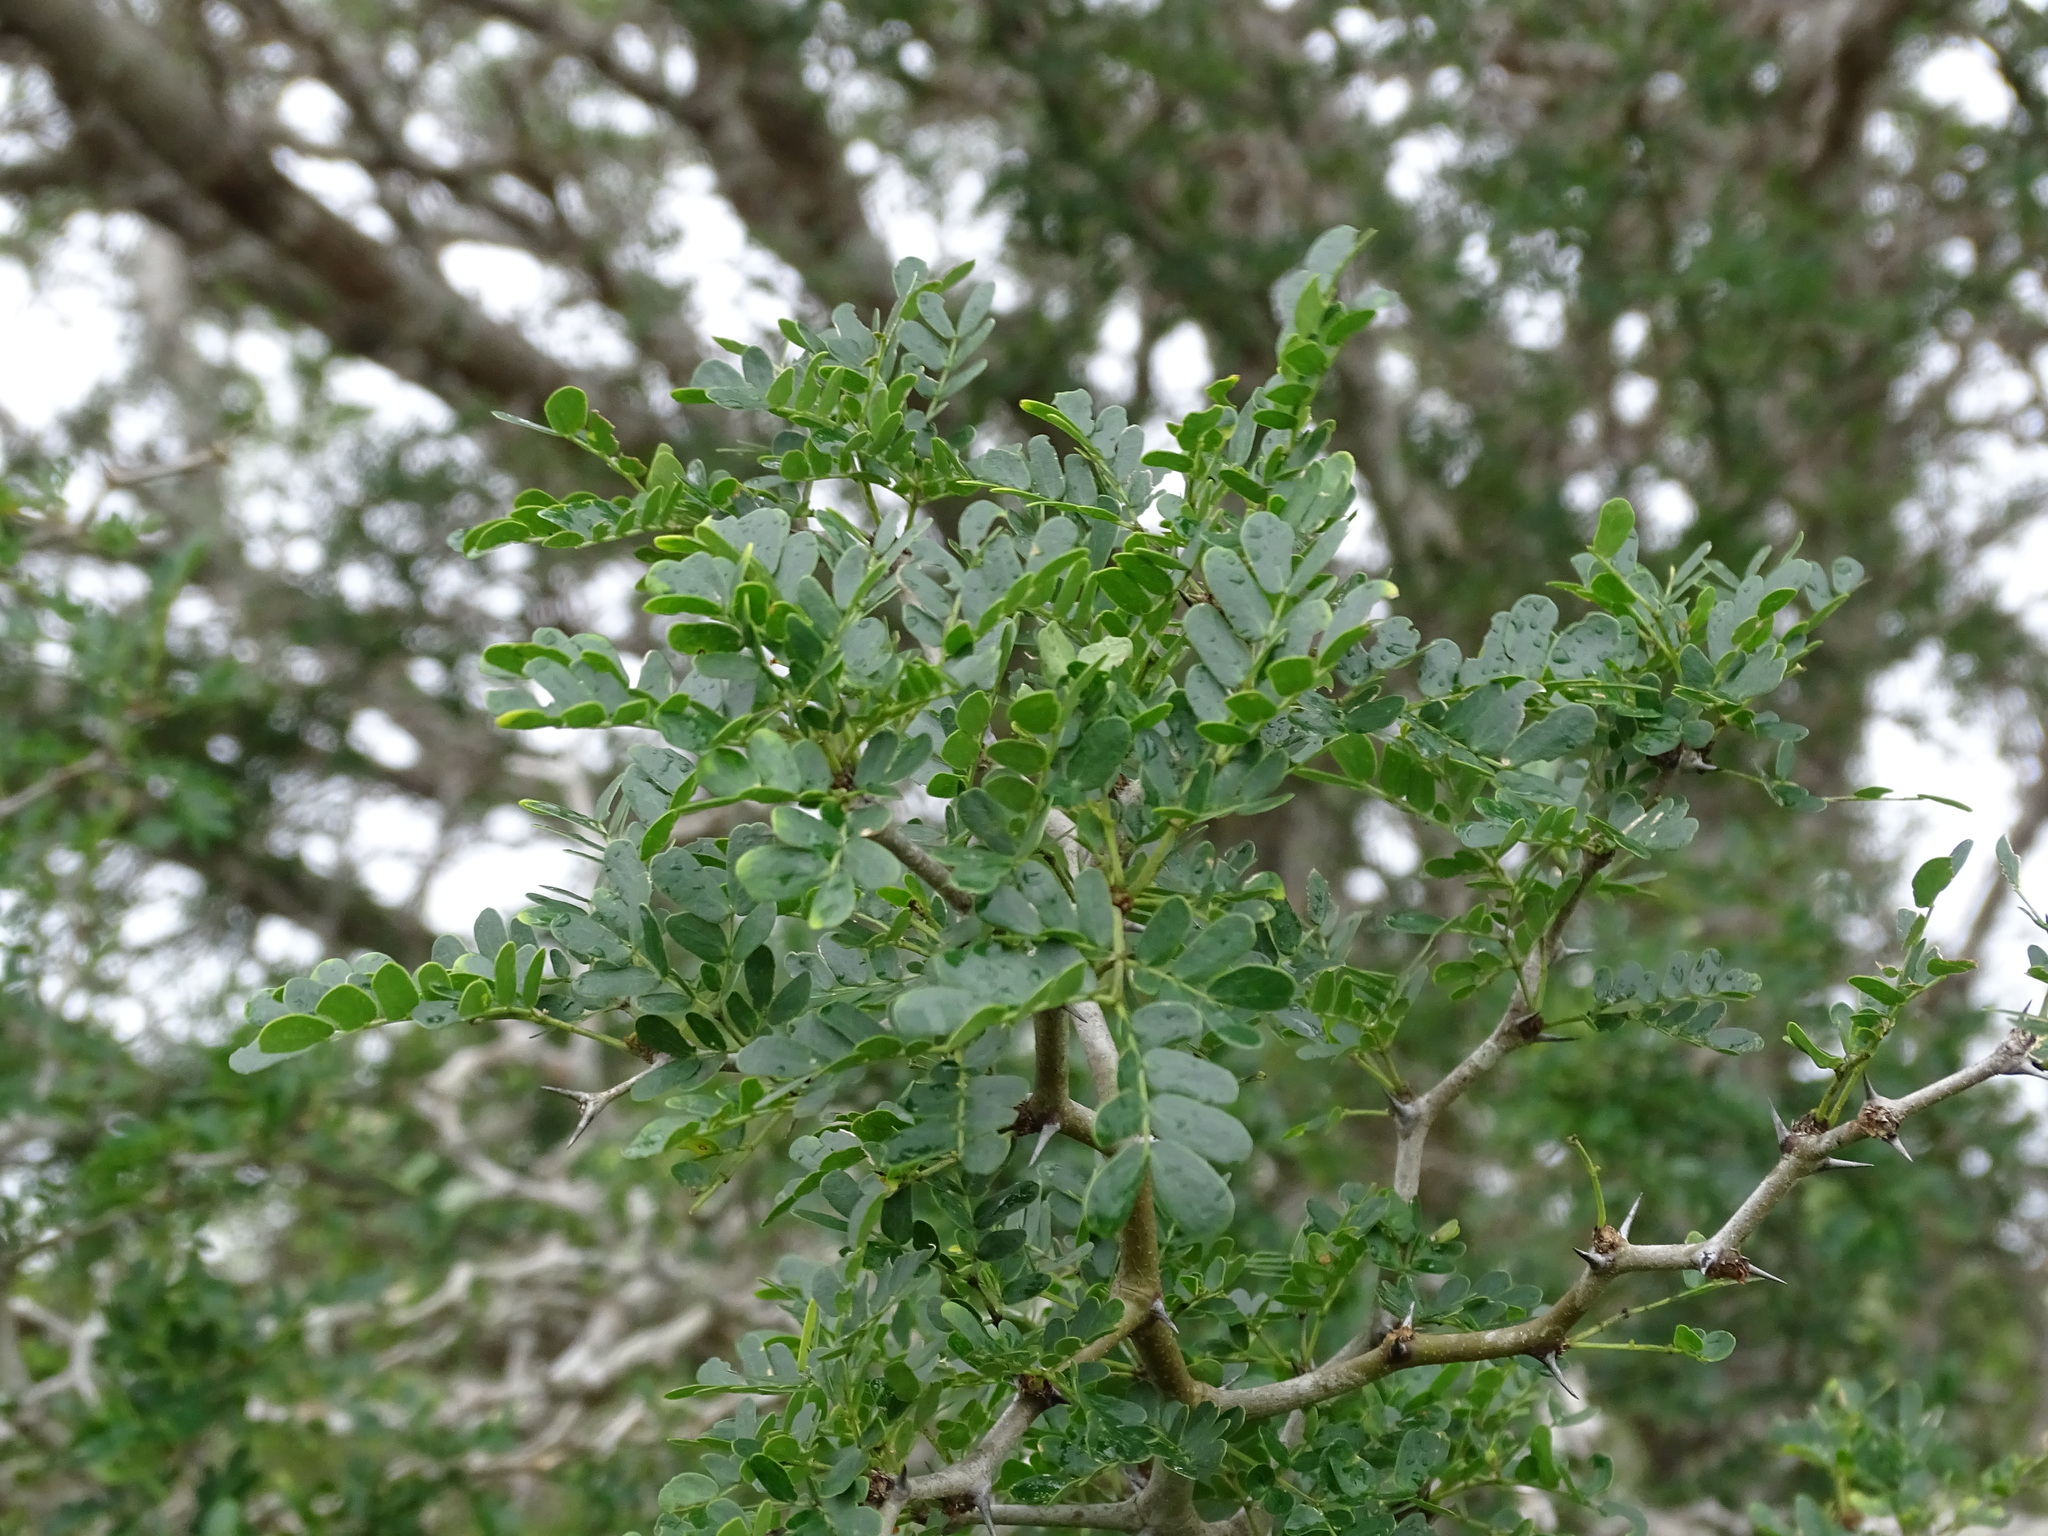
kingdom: Plantae
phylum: Tracheophyta
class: Magnoliopsida
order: Fabales
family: Fabaceae
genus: Ebenopsis
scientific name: Ebenopsis ebano
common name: Ebony blackbead
